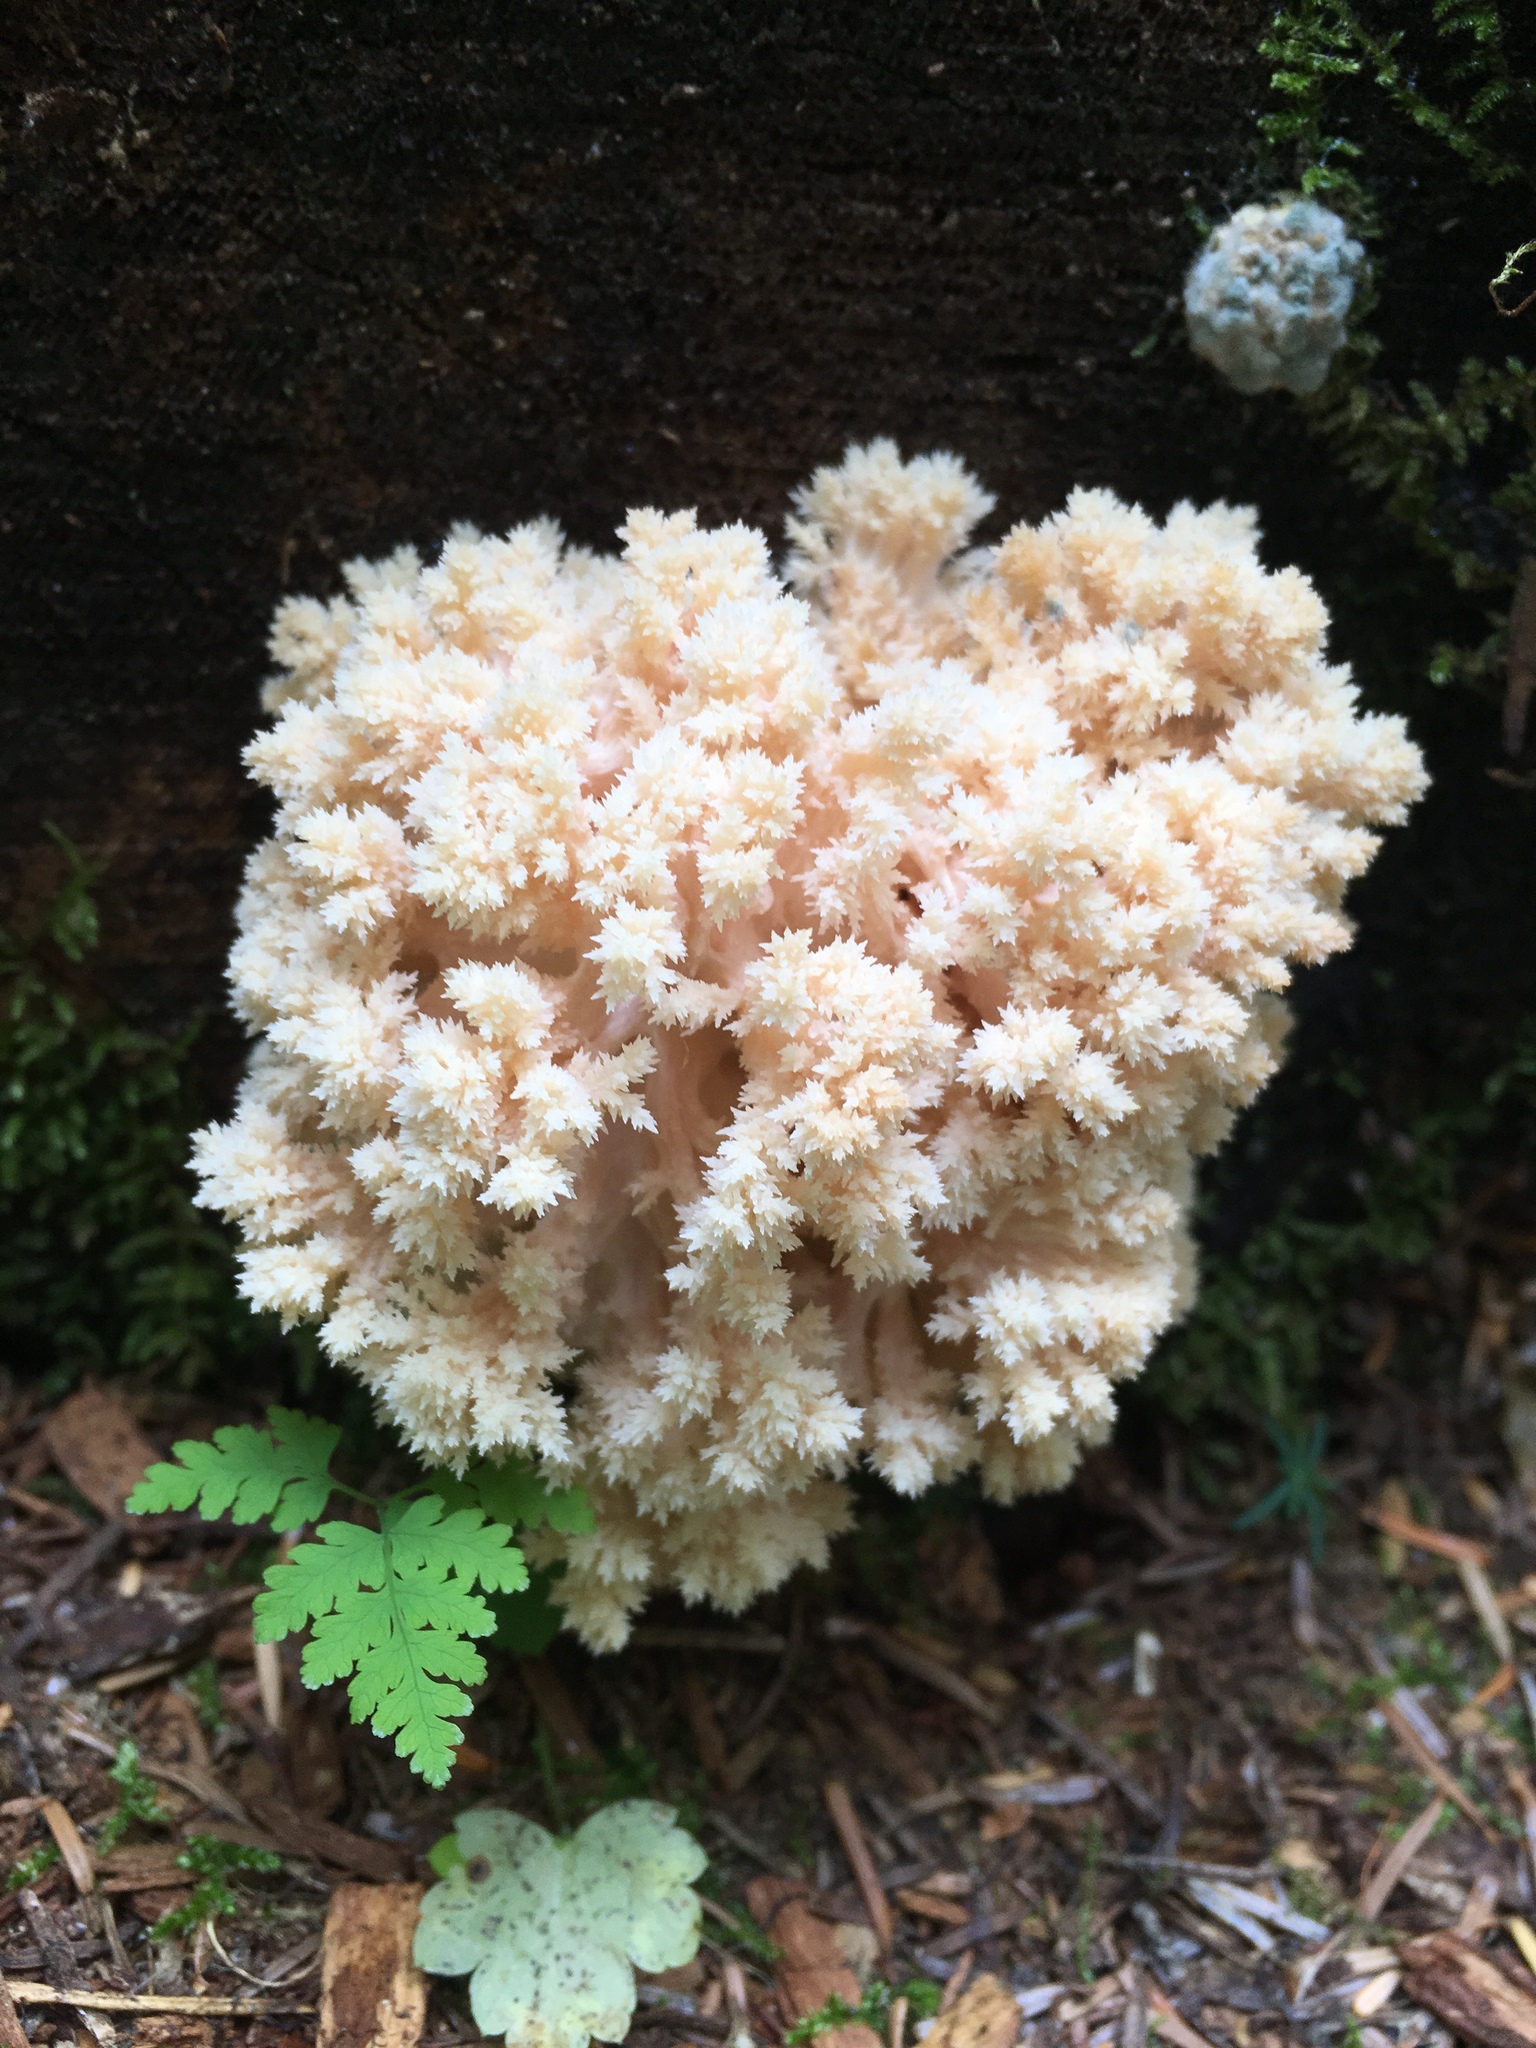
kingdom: Fungi
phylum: Basidiomycota
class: Agaricomycetes
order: Russulales
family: Hericiaceae
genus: Hericium
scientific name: Hericium abietis
